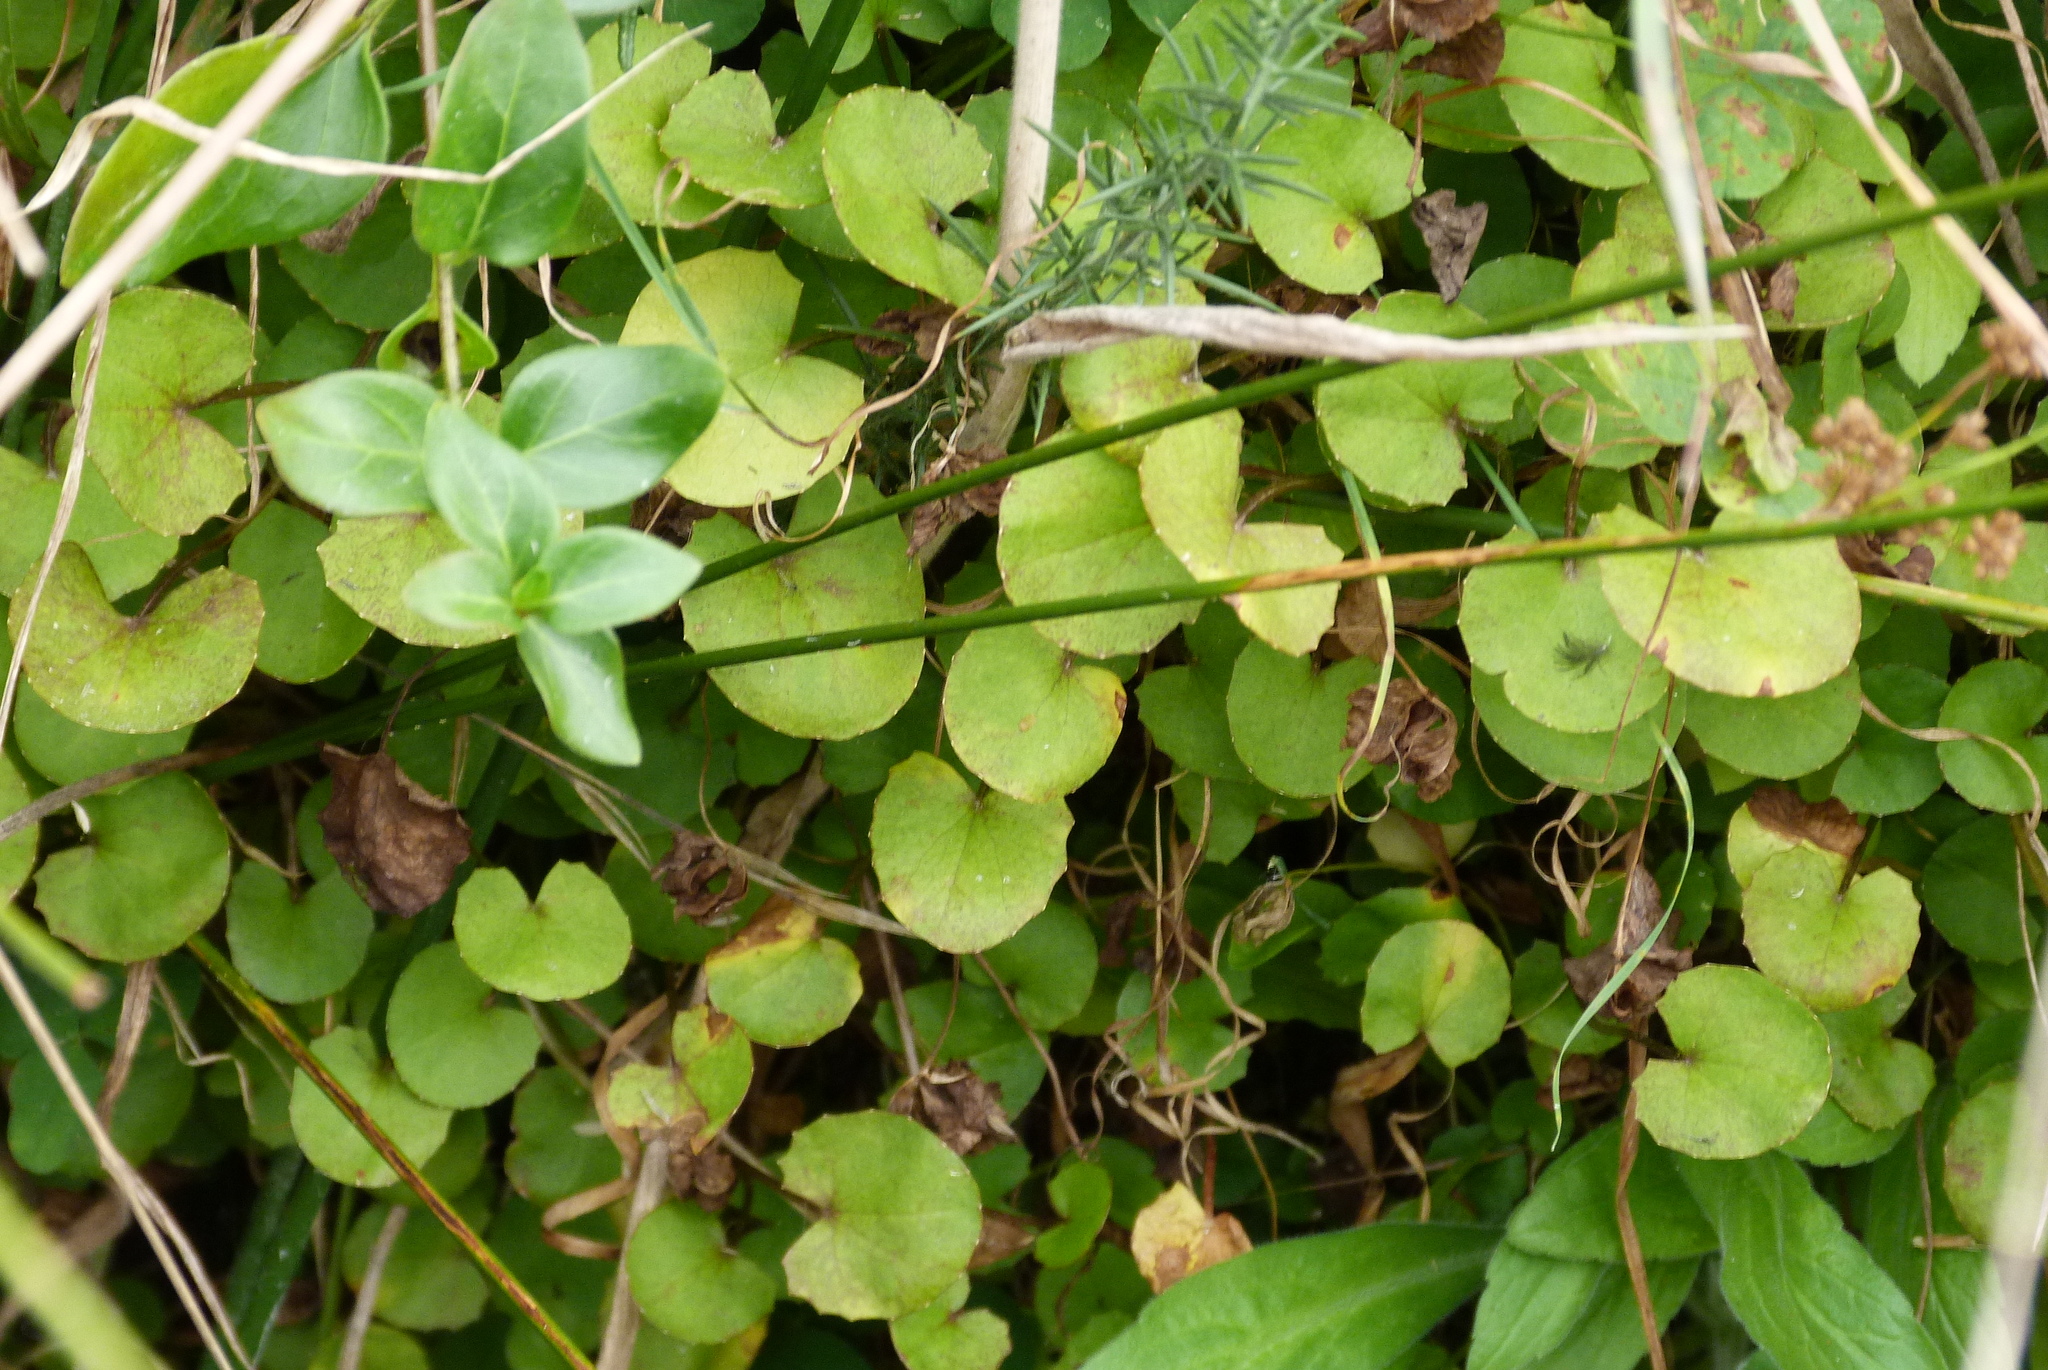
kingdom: Plantae
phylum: Tracheophyta
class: Magnoliopsida
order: Apiales
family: Apiaceae
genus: Centella
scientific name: Centella uniflora
